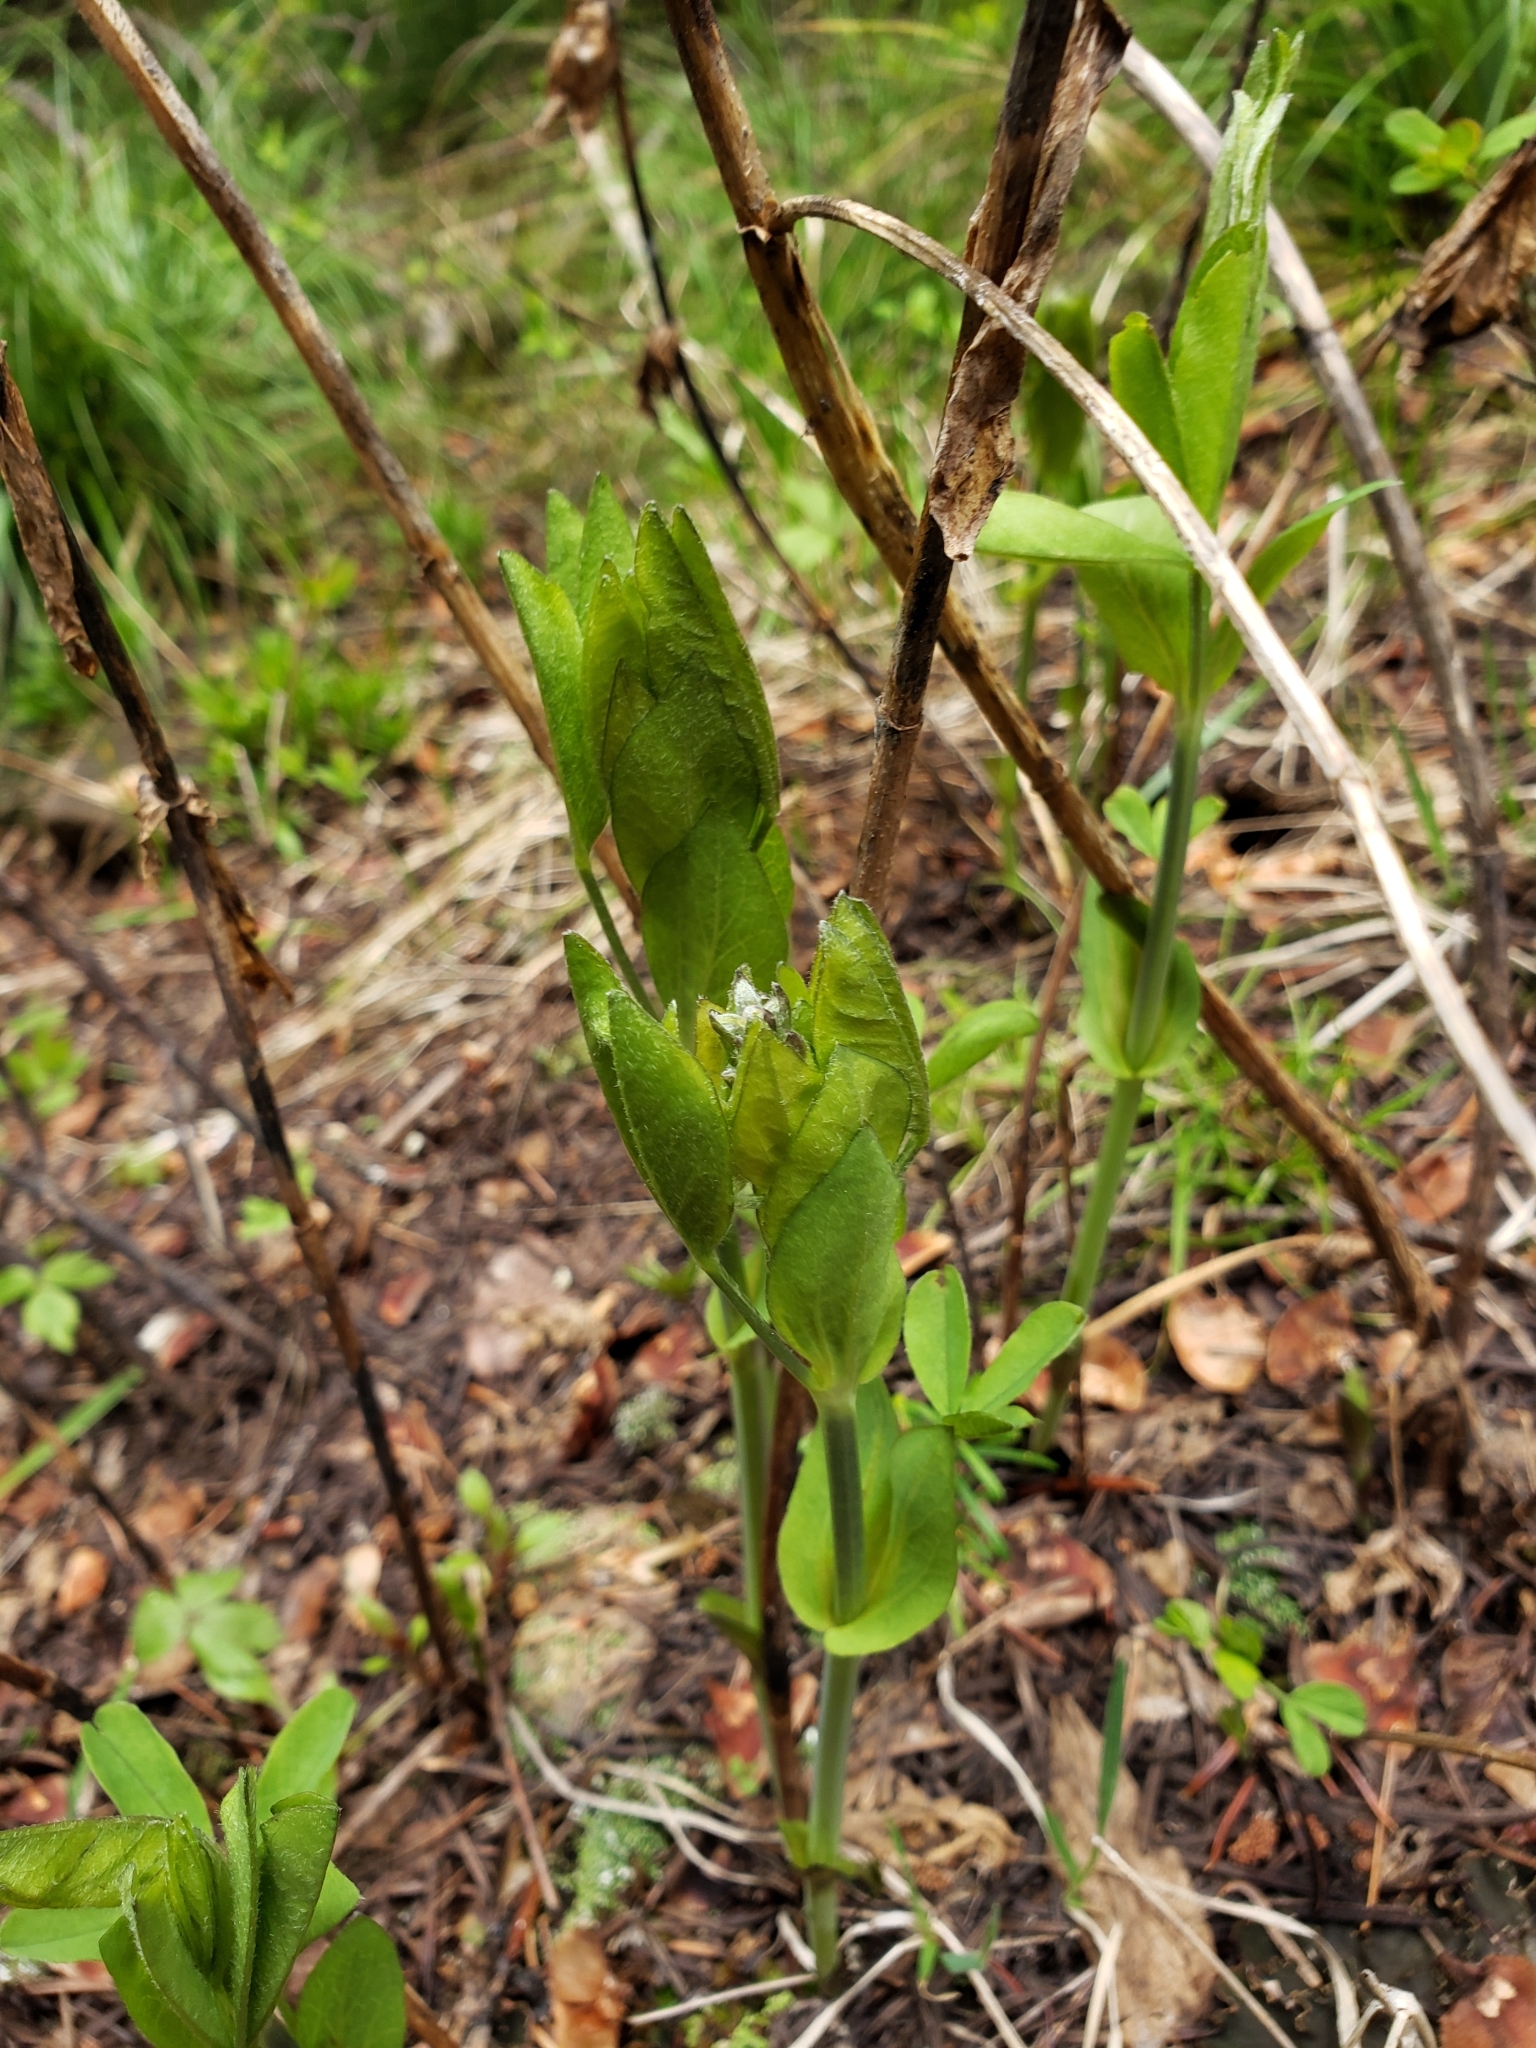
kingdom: Plantae
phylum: Tracheophyta
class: Magnoliopsida
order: Fabales
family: Fabaceae
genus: Thermopsis
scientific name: Thermopsis montana
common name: False lupin
